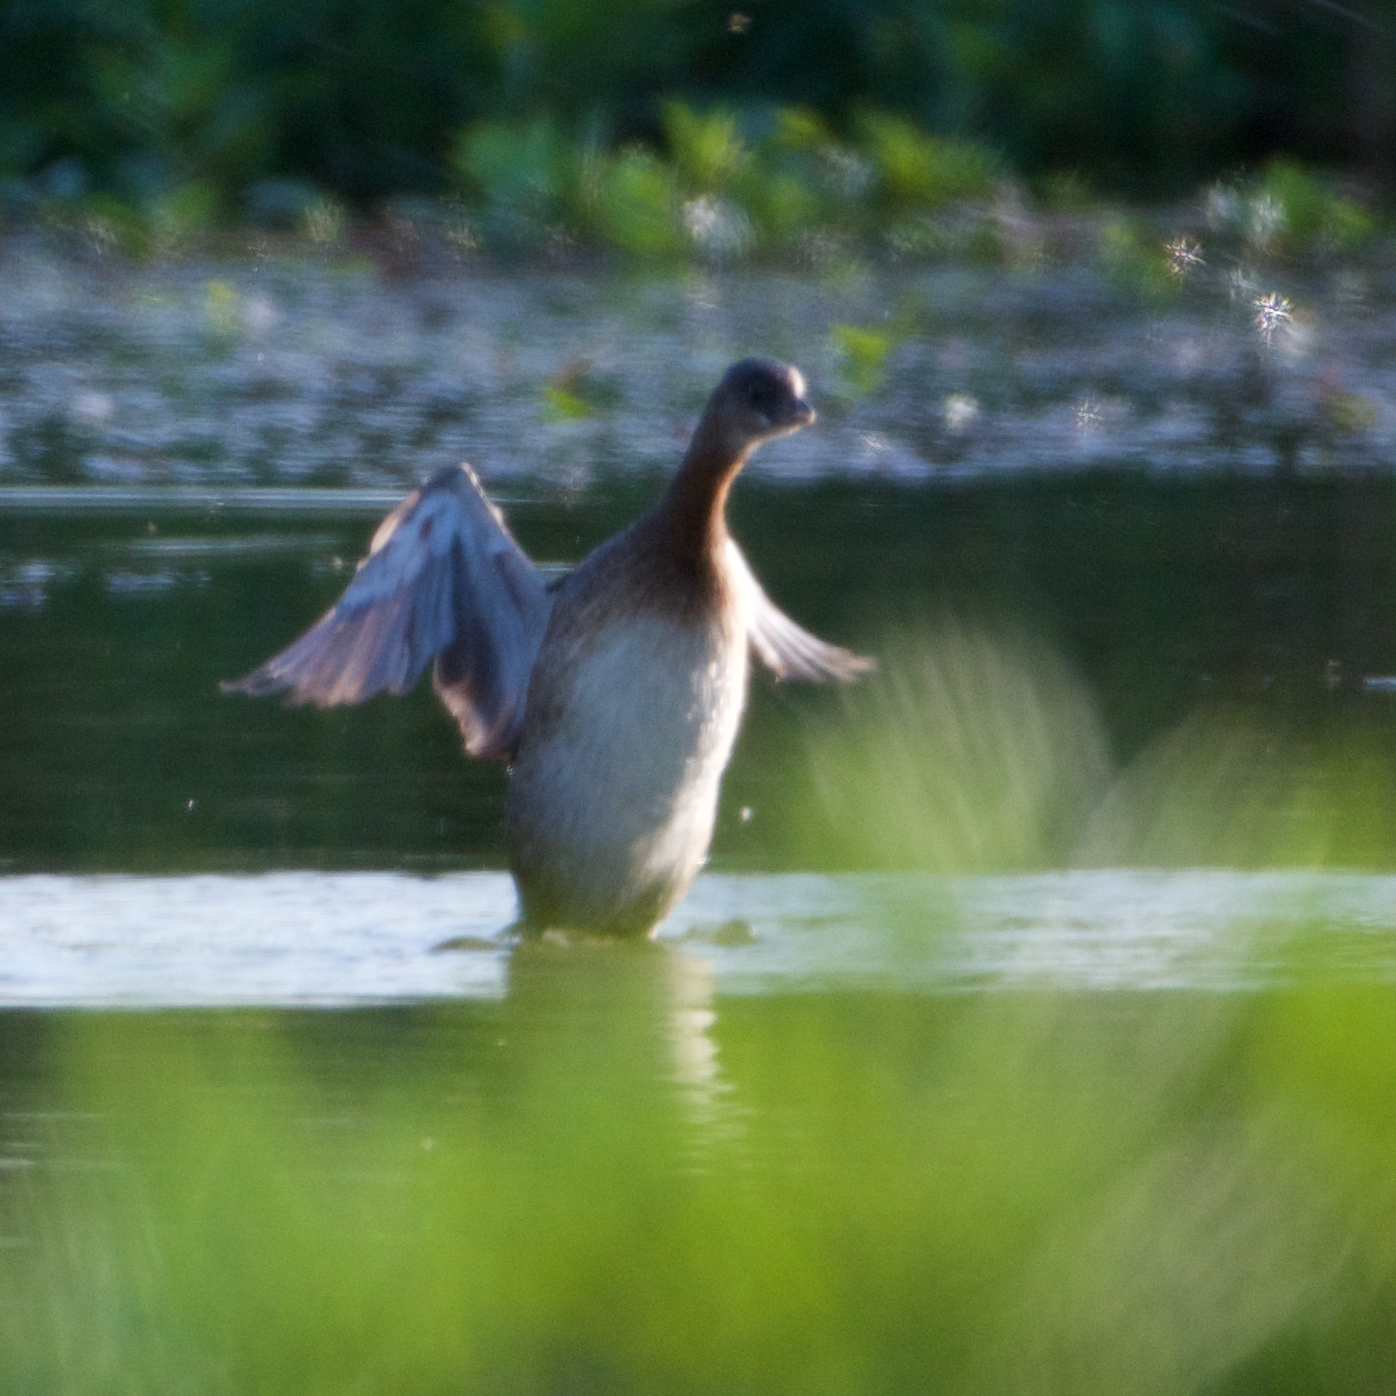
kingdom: Animalia
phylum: Chordata
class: Aves
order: Podicipediformes
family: Podicipedidae
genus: Podilymbus
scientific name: Podilymbus podiceps
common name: Pied-billed grebe
